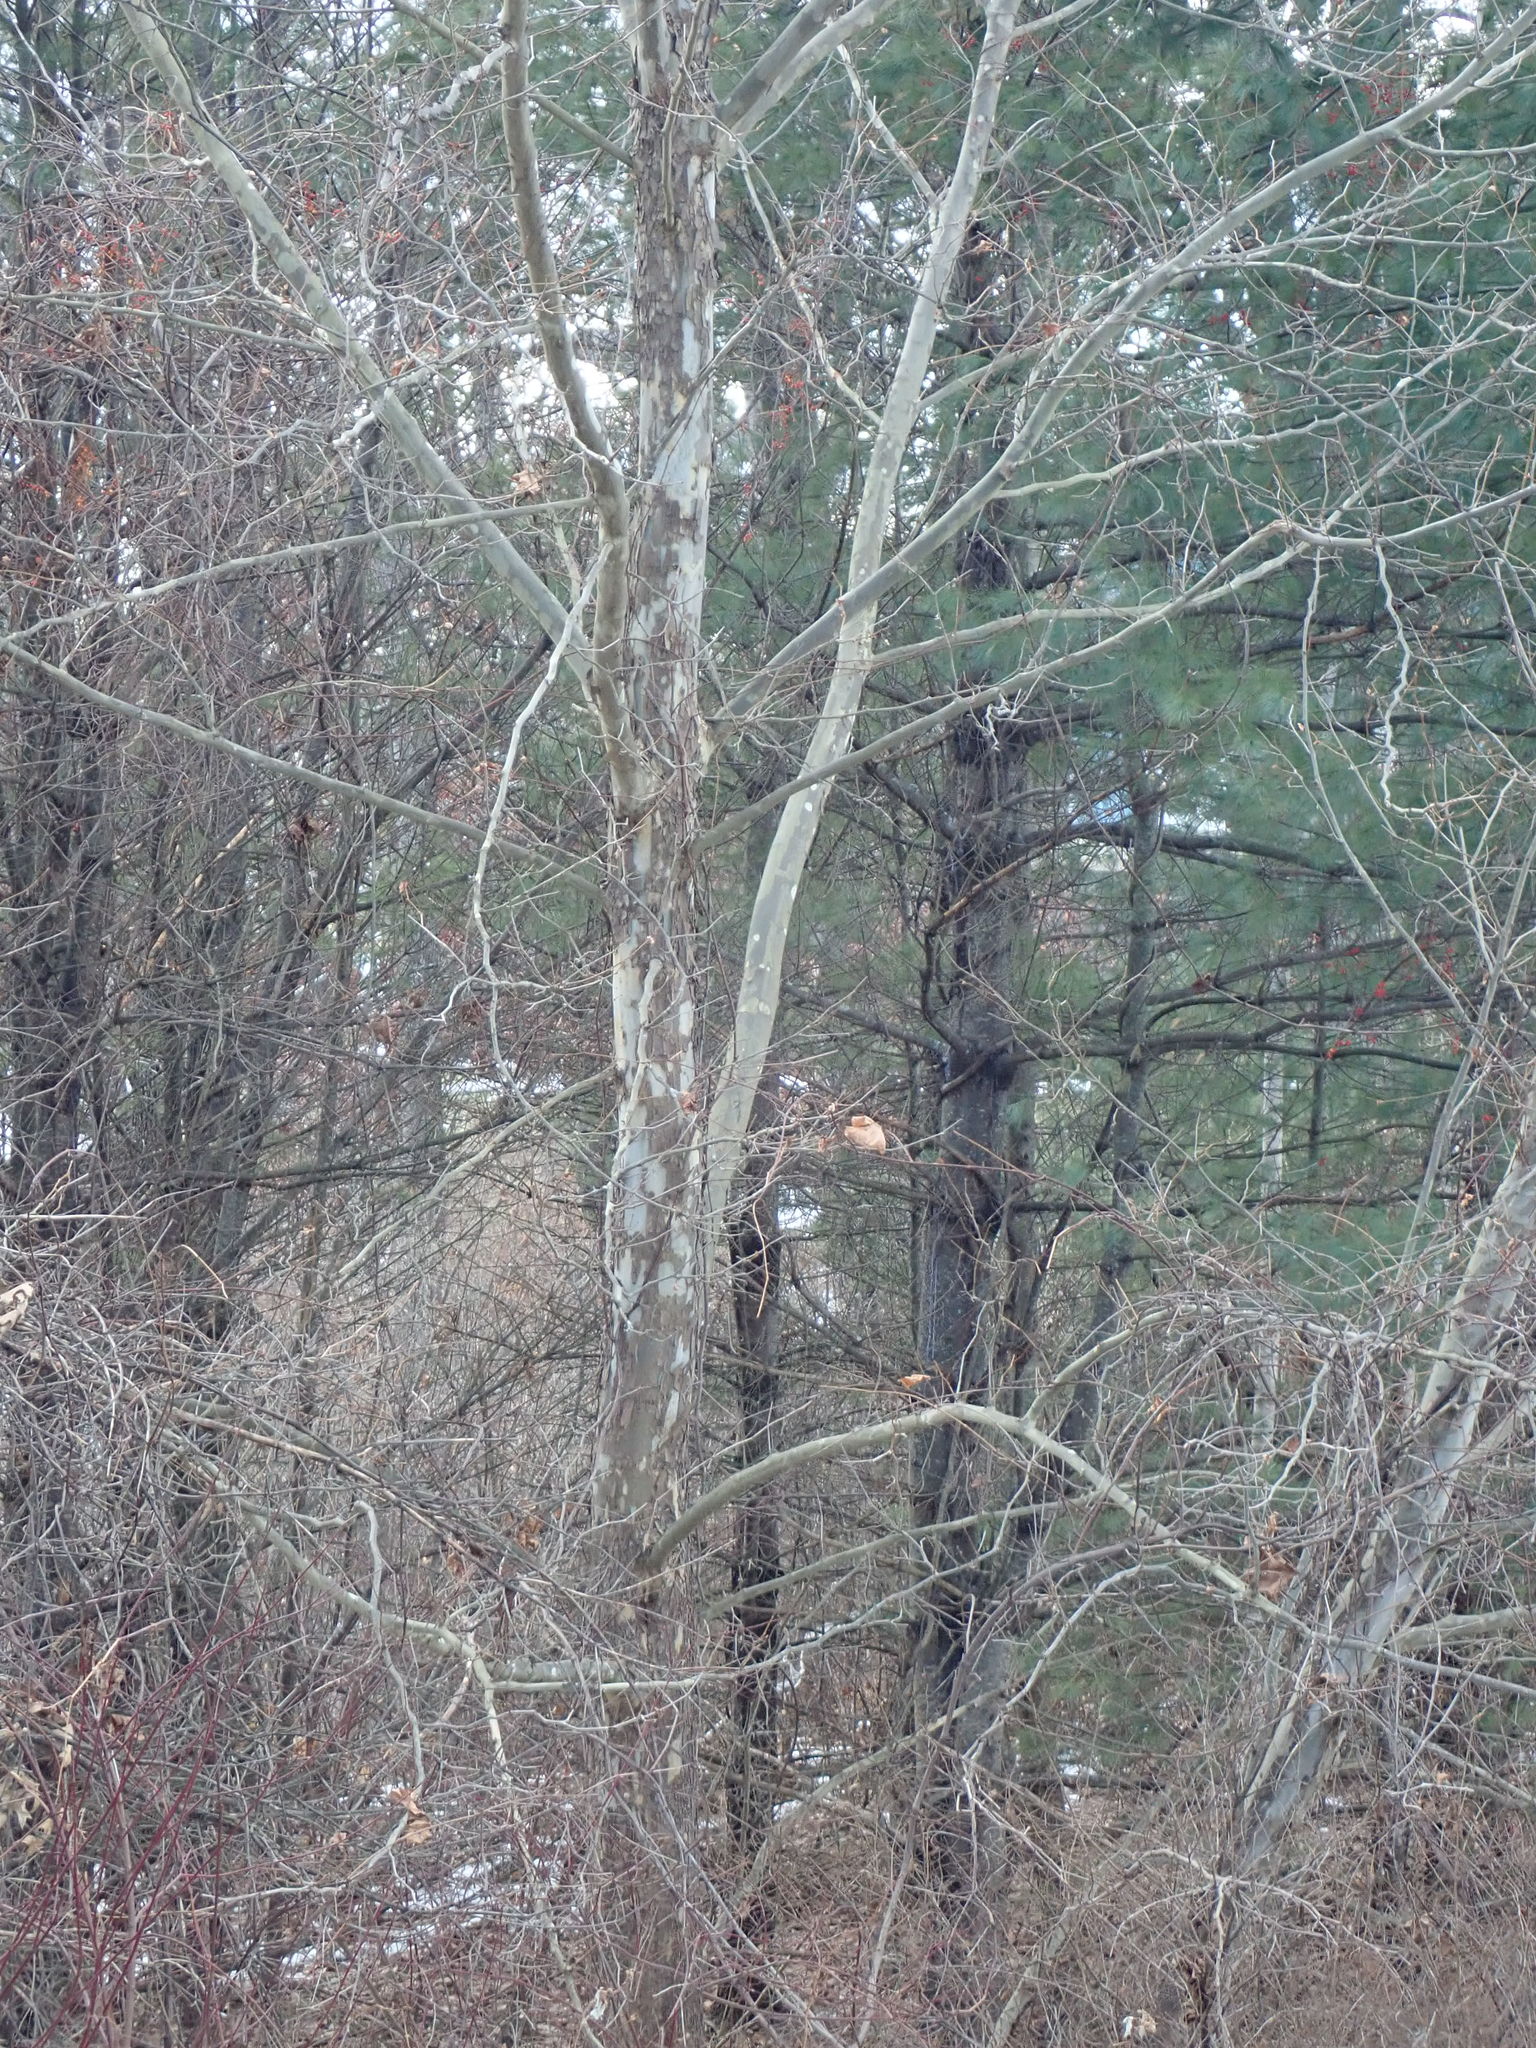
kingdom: Plantae
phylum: Tracheophyta
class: Magnoliopsida
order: Proteales
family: Platanaceae
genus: Platanus
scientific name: Platanus occidentalis
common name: American sycamore
